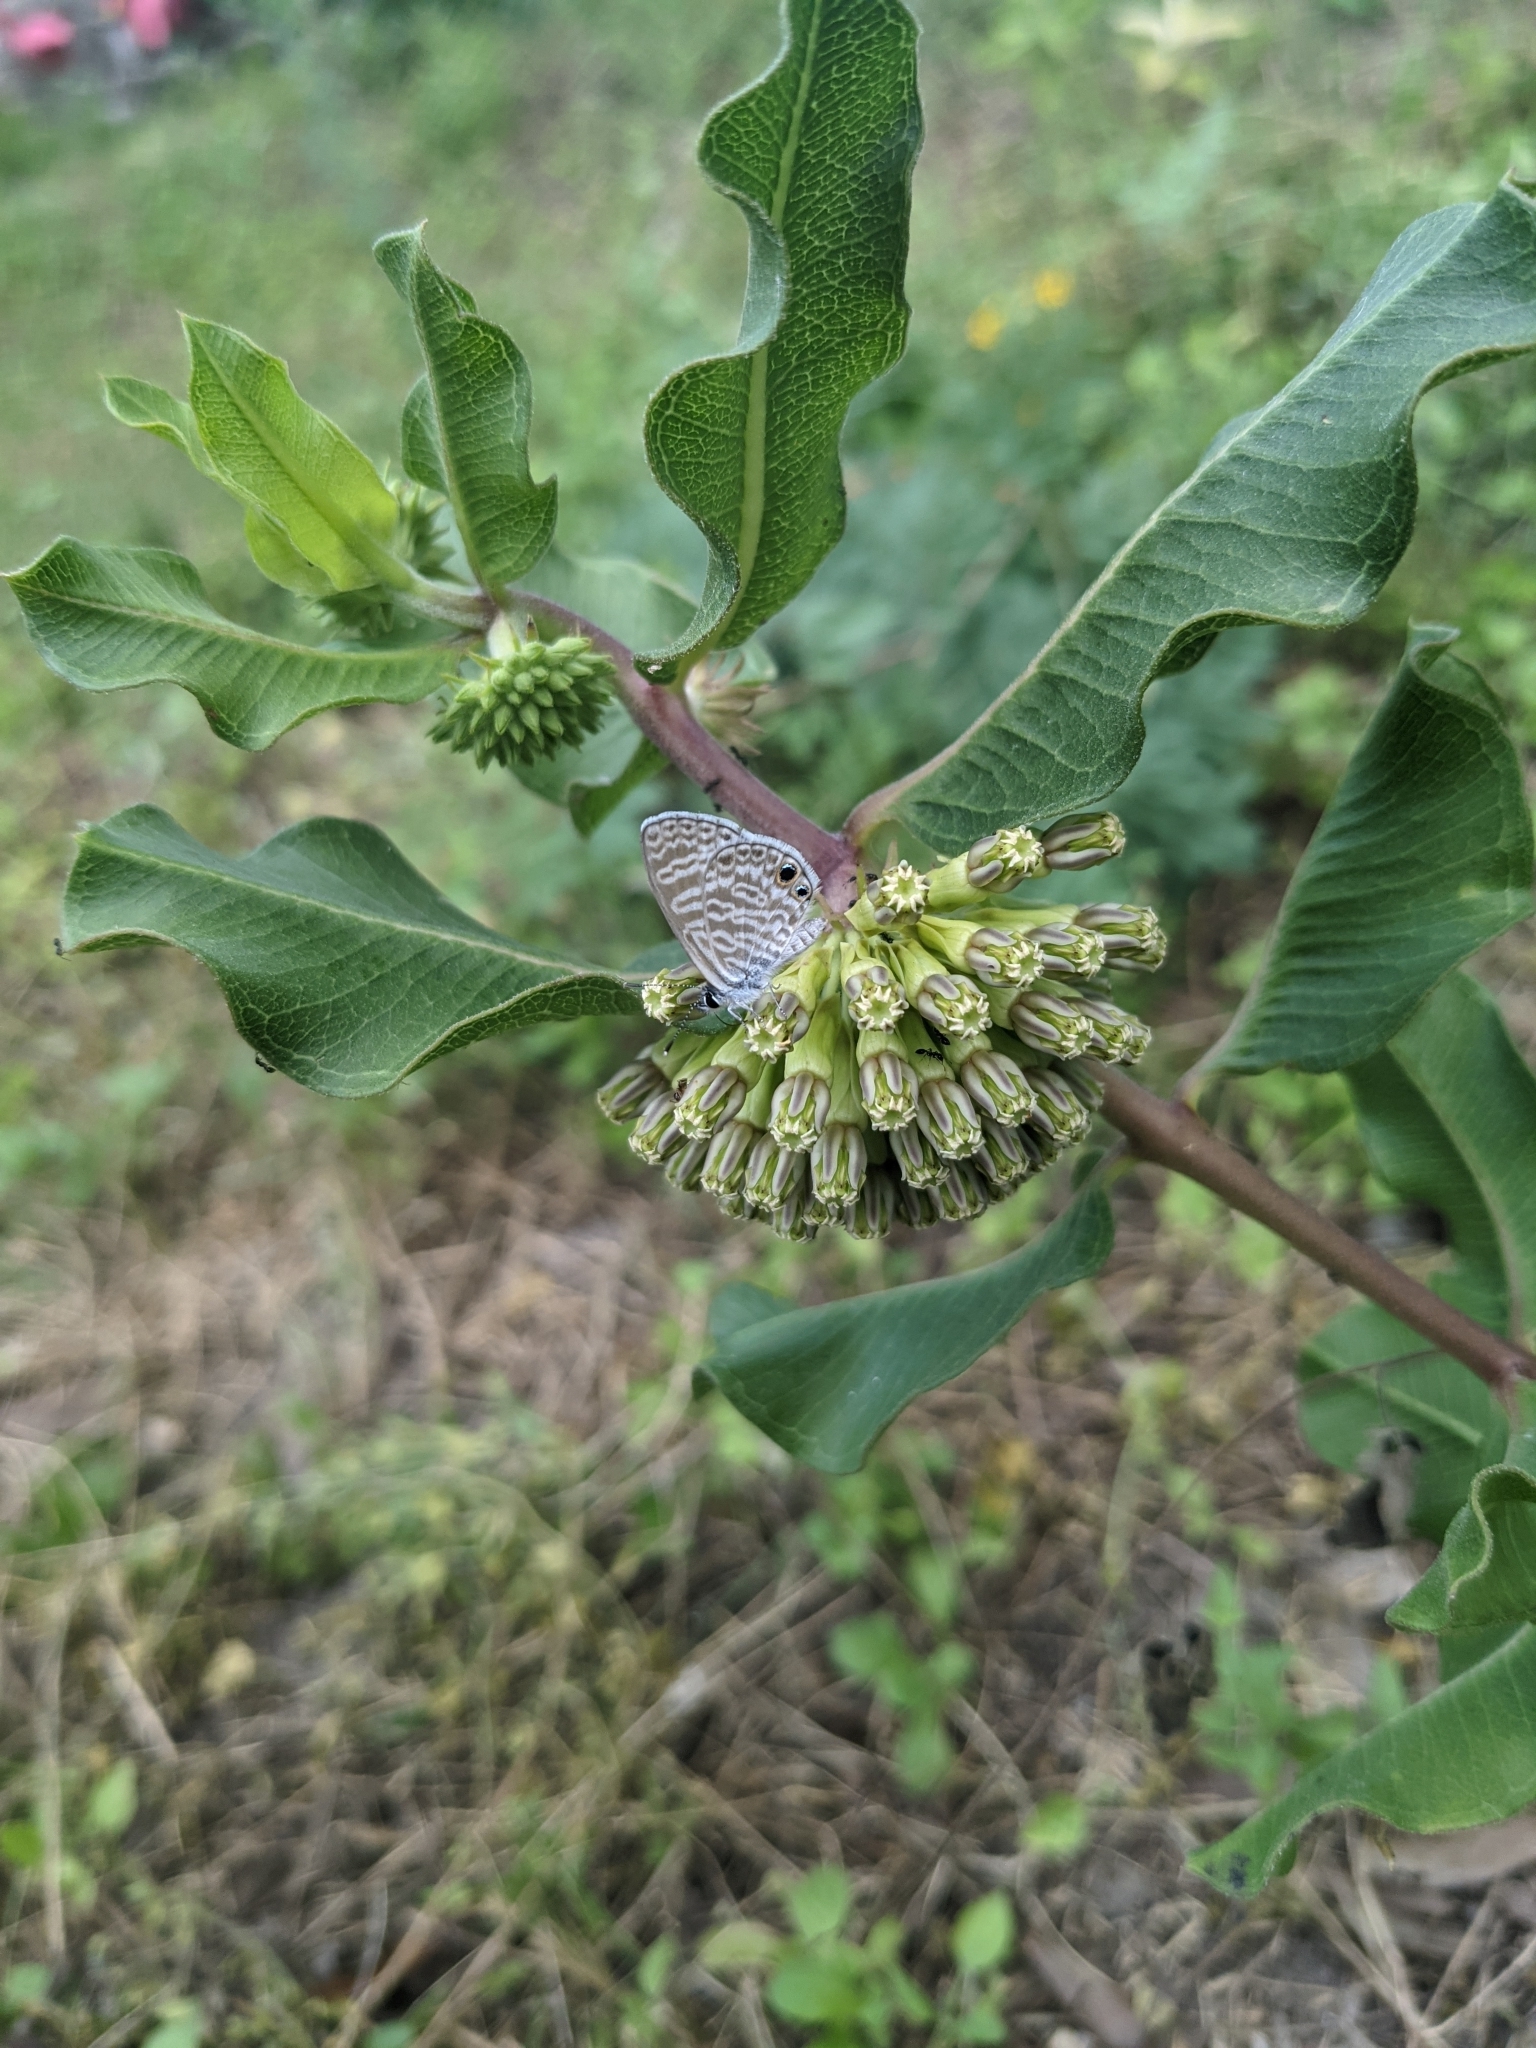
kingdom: Animalia
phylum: Arthropoda
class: Insecta
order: Lepidoptera
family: Lycaenidae
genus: Leptotes
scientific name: Leptotes marina
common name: Marine blue
